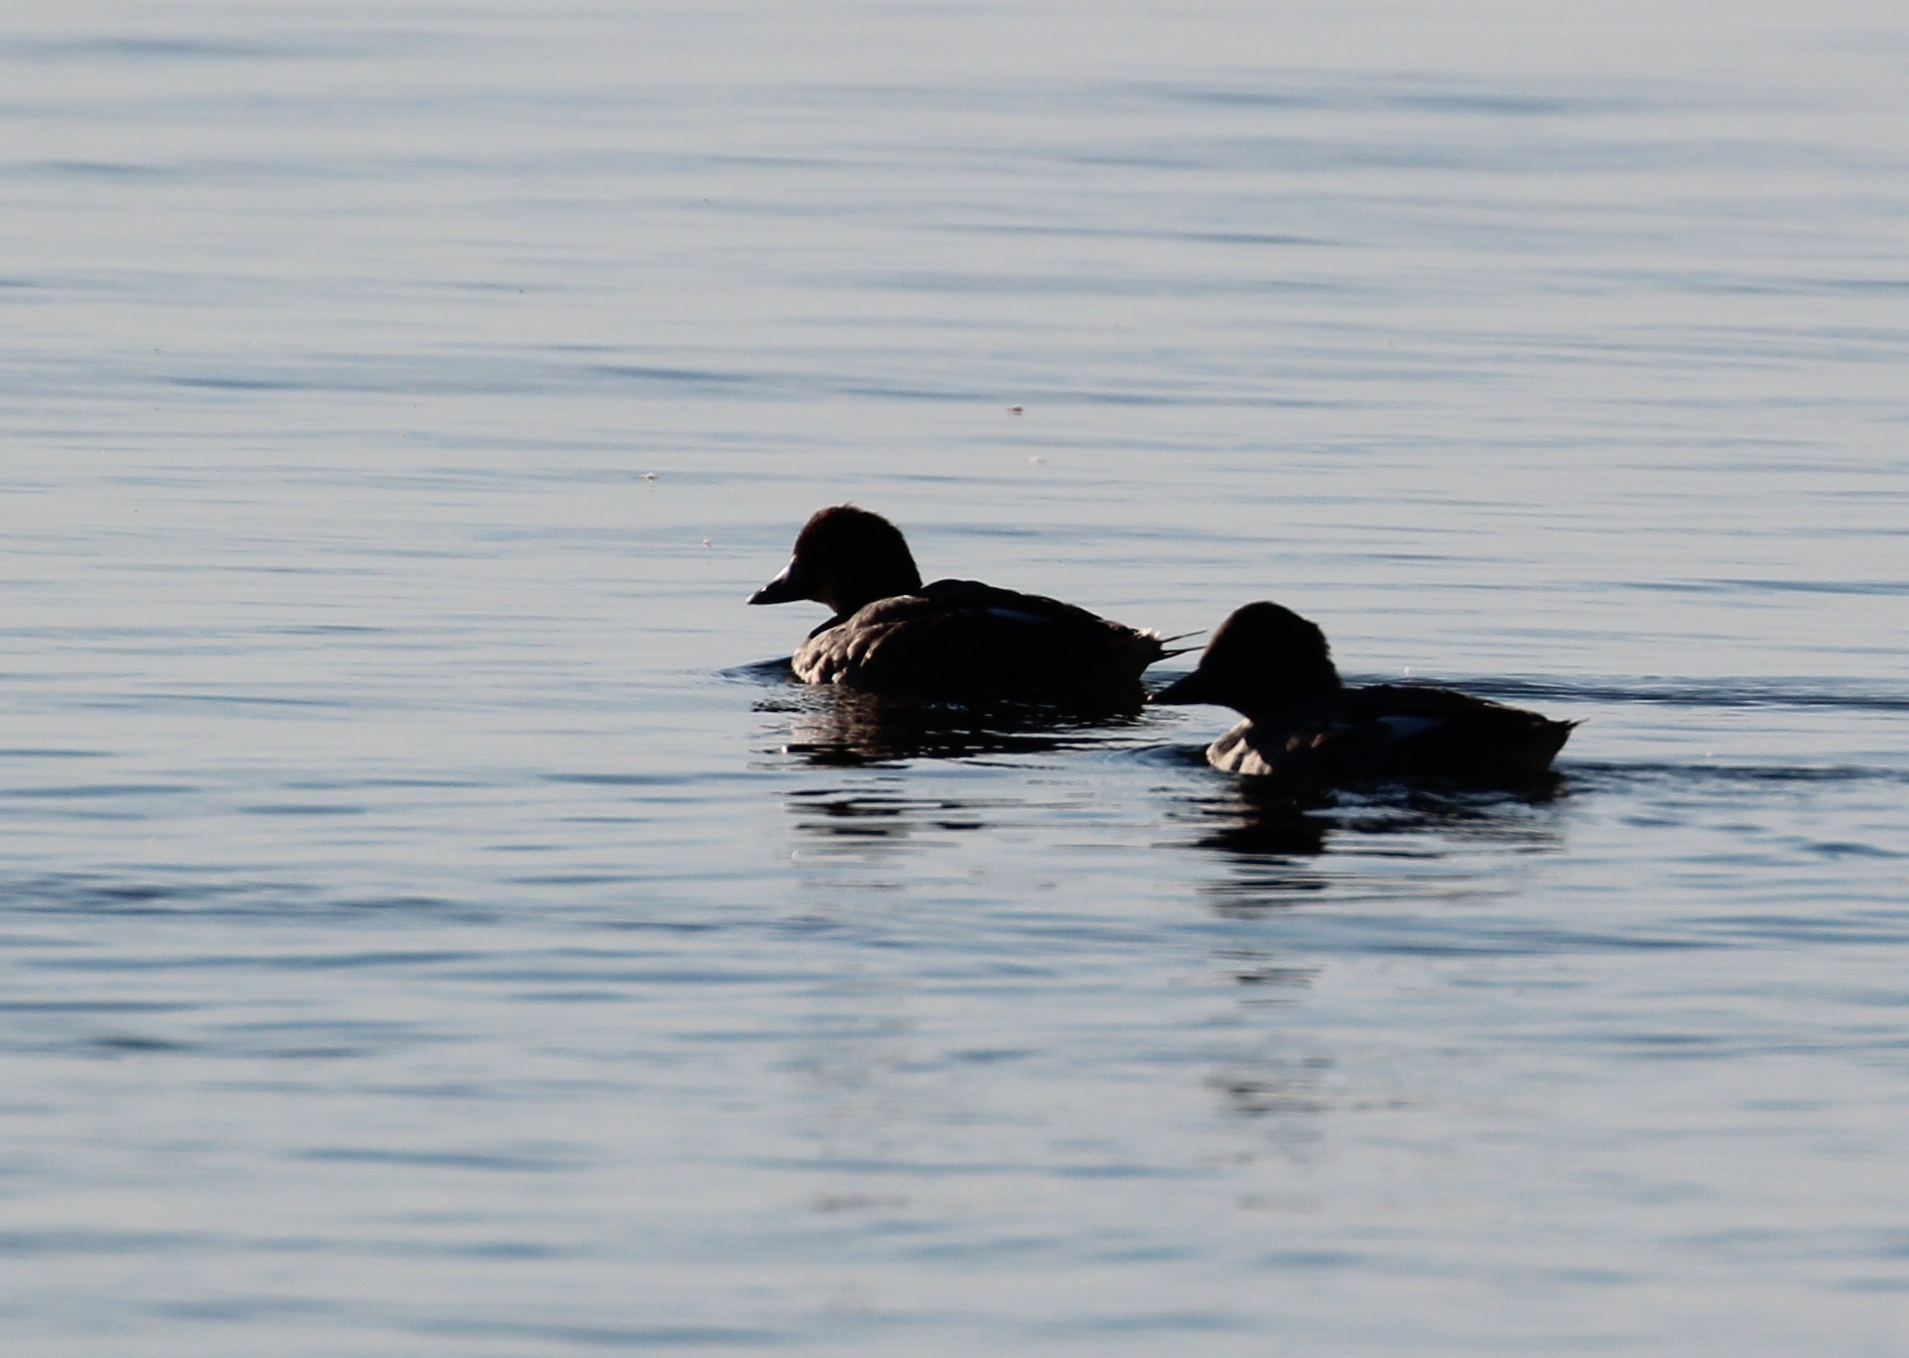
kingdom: Animalia
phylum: Chordata
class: Aves
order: Anseriformes
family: Anatidae
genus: Bucephala
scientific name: Bucephala clangula
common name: Common goldeneye
